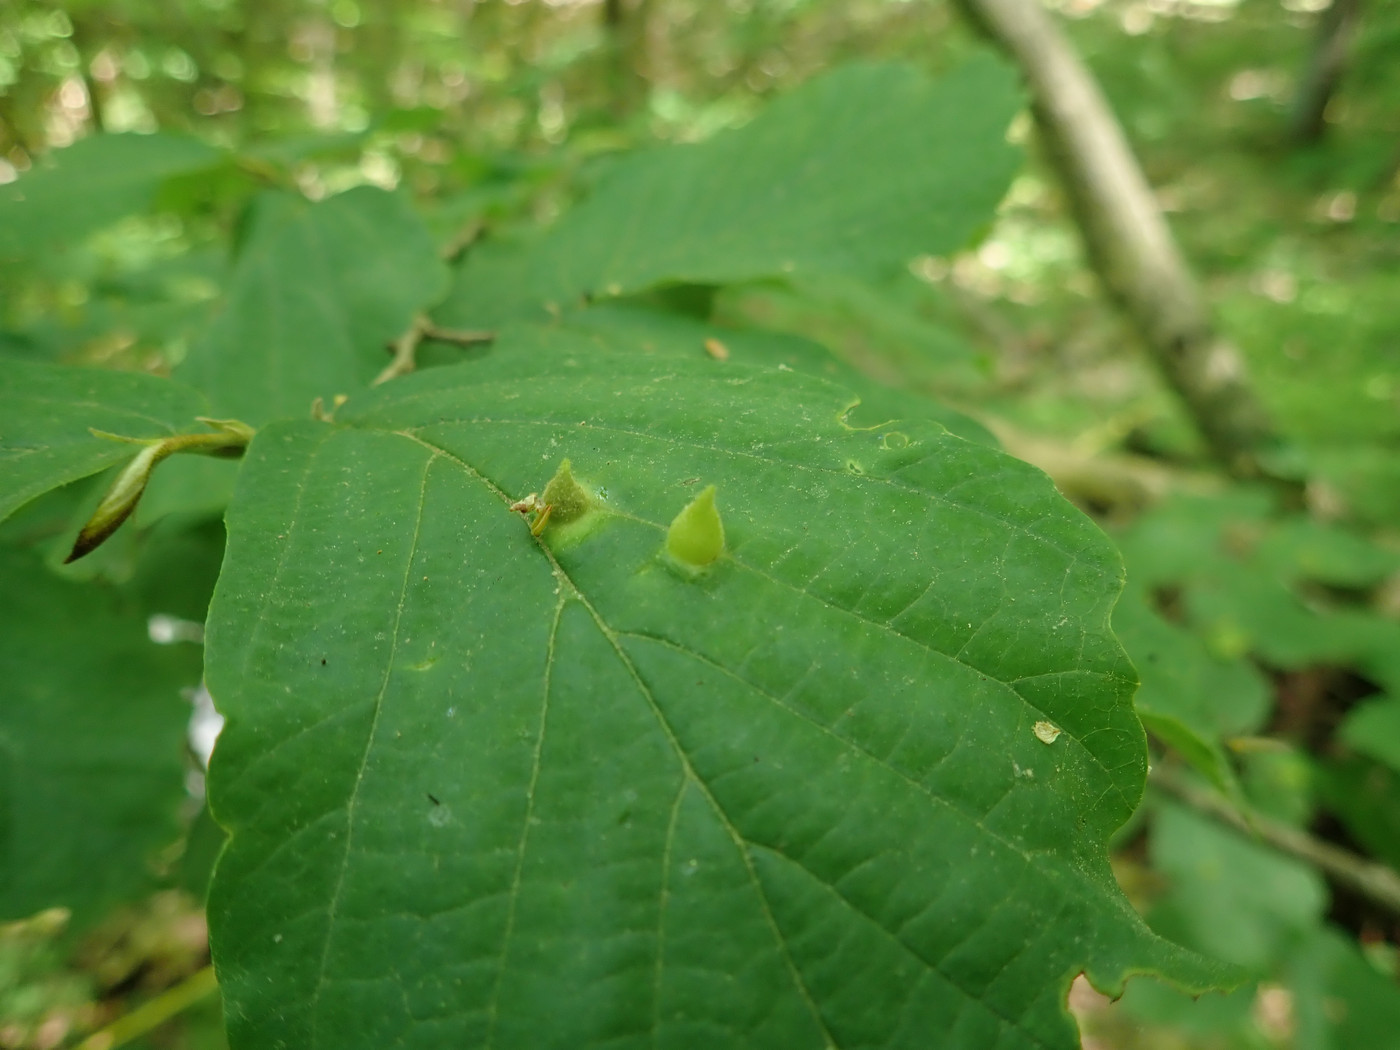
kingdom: Animalia
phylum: Arthropoda
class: Insecta
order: Hemiptera
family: Aphididae
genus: Hormaphis
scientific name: Hormaphis hamamelidis
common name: Witch-hazel cone gall aphid
